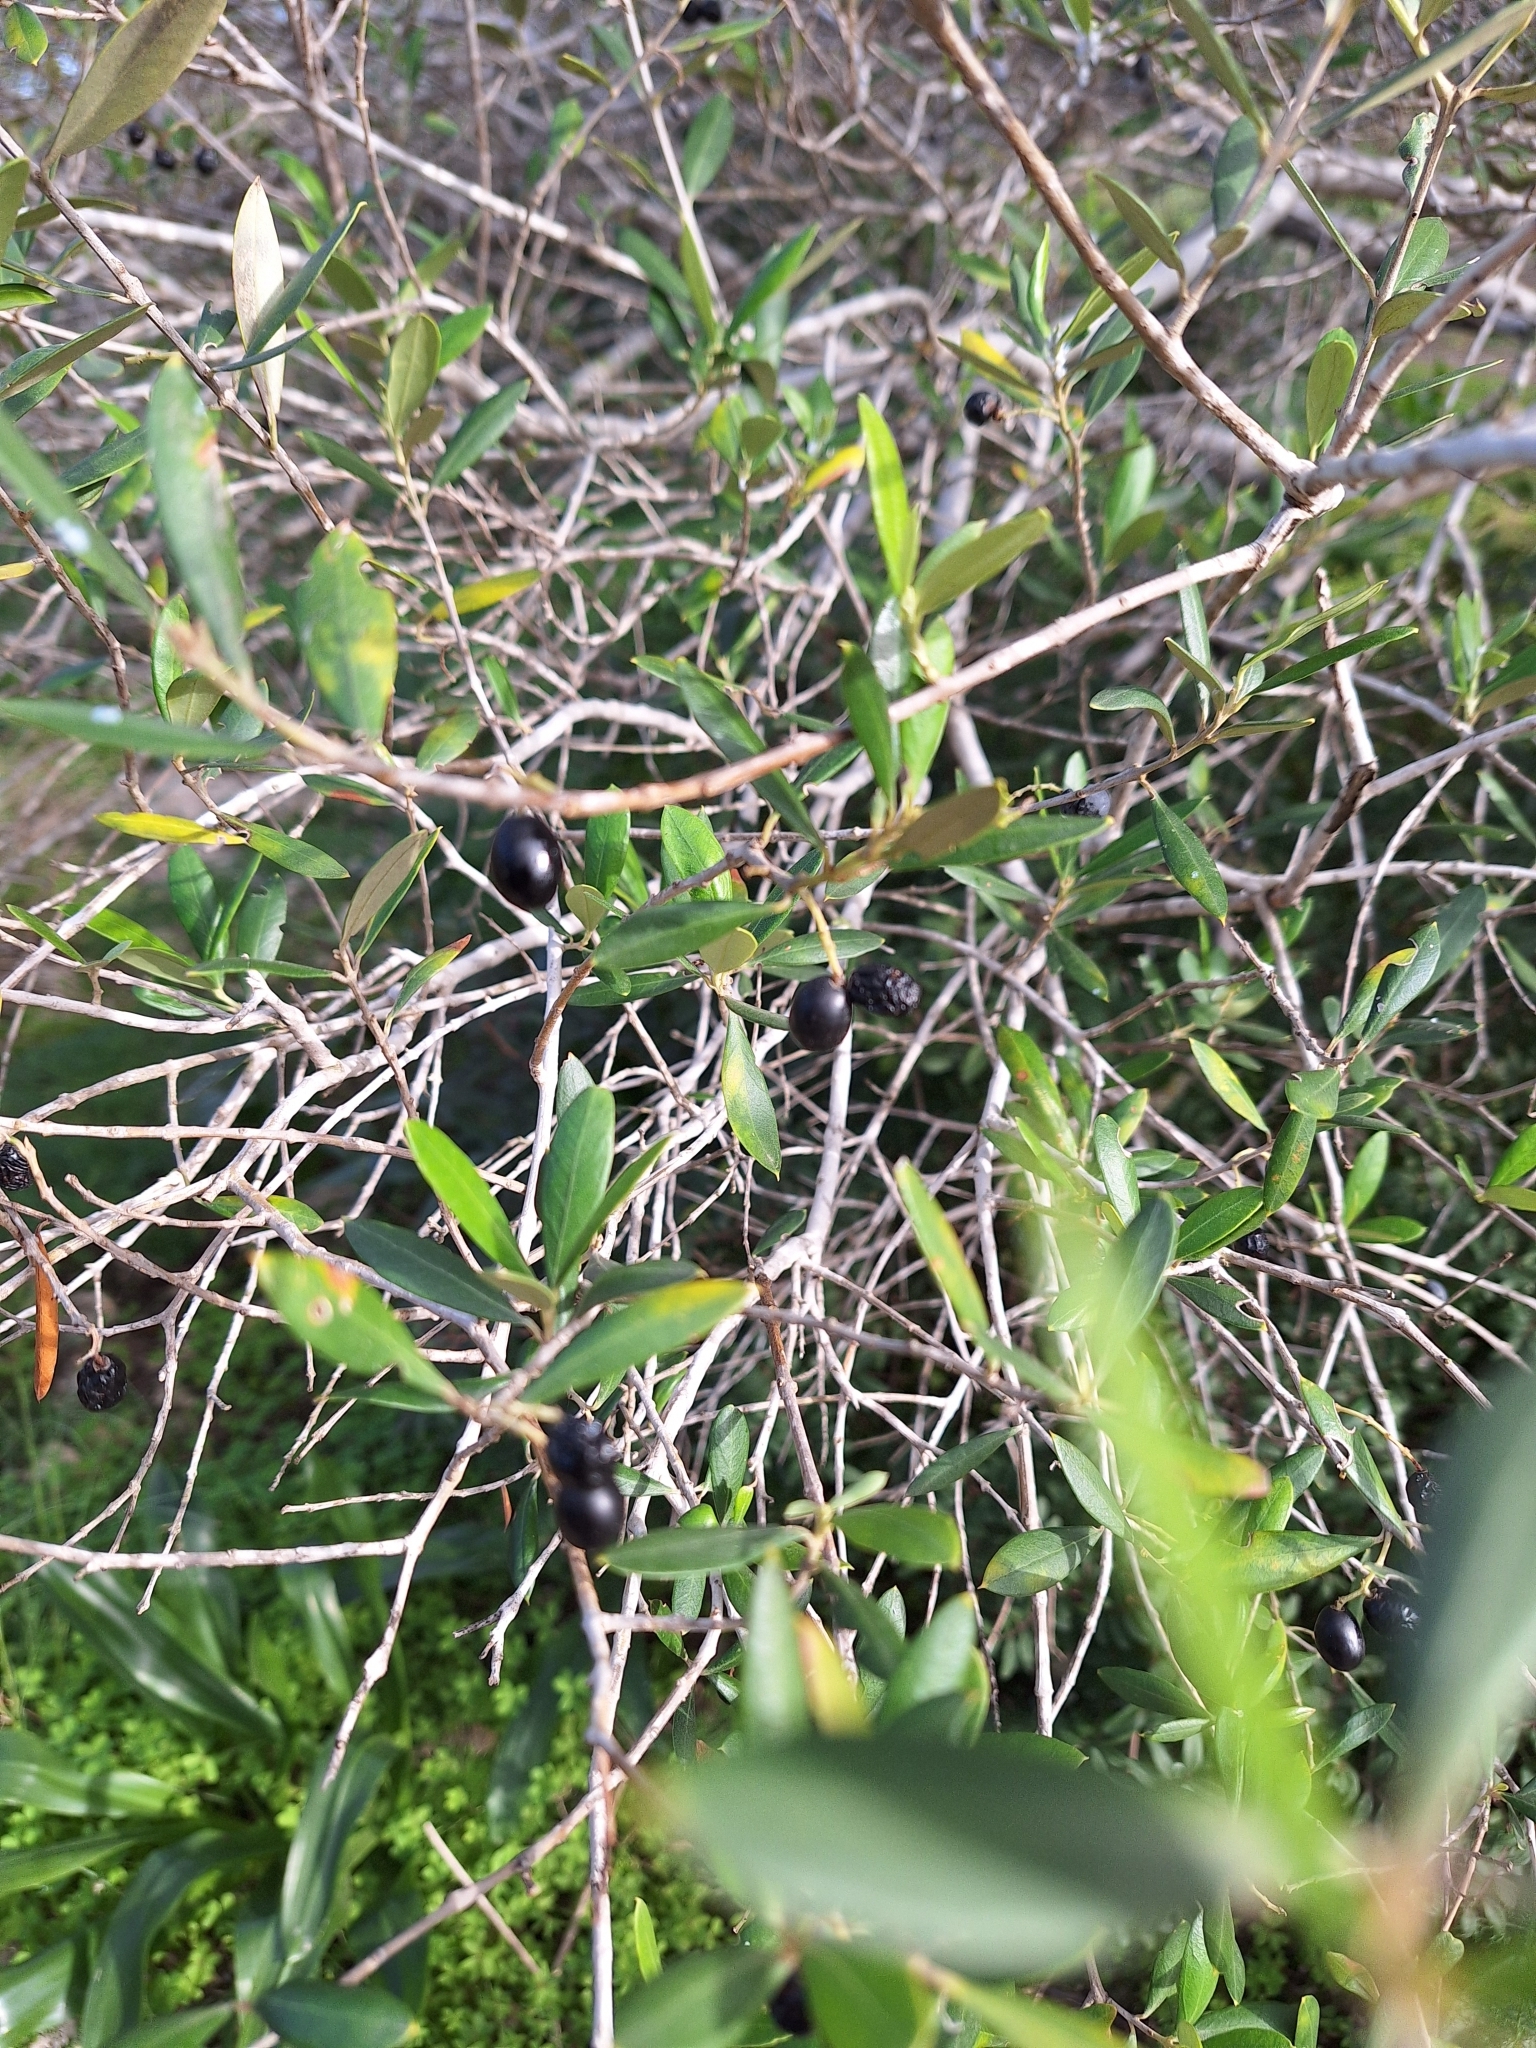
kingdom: Plantae
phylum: Tracheophyta
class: Magnoliopsida
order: Lamiales
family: Oleaceae
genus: Olea
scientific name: Olea europaea
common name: Olive
